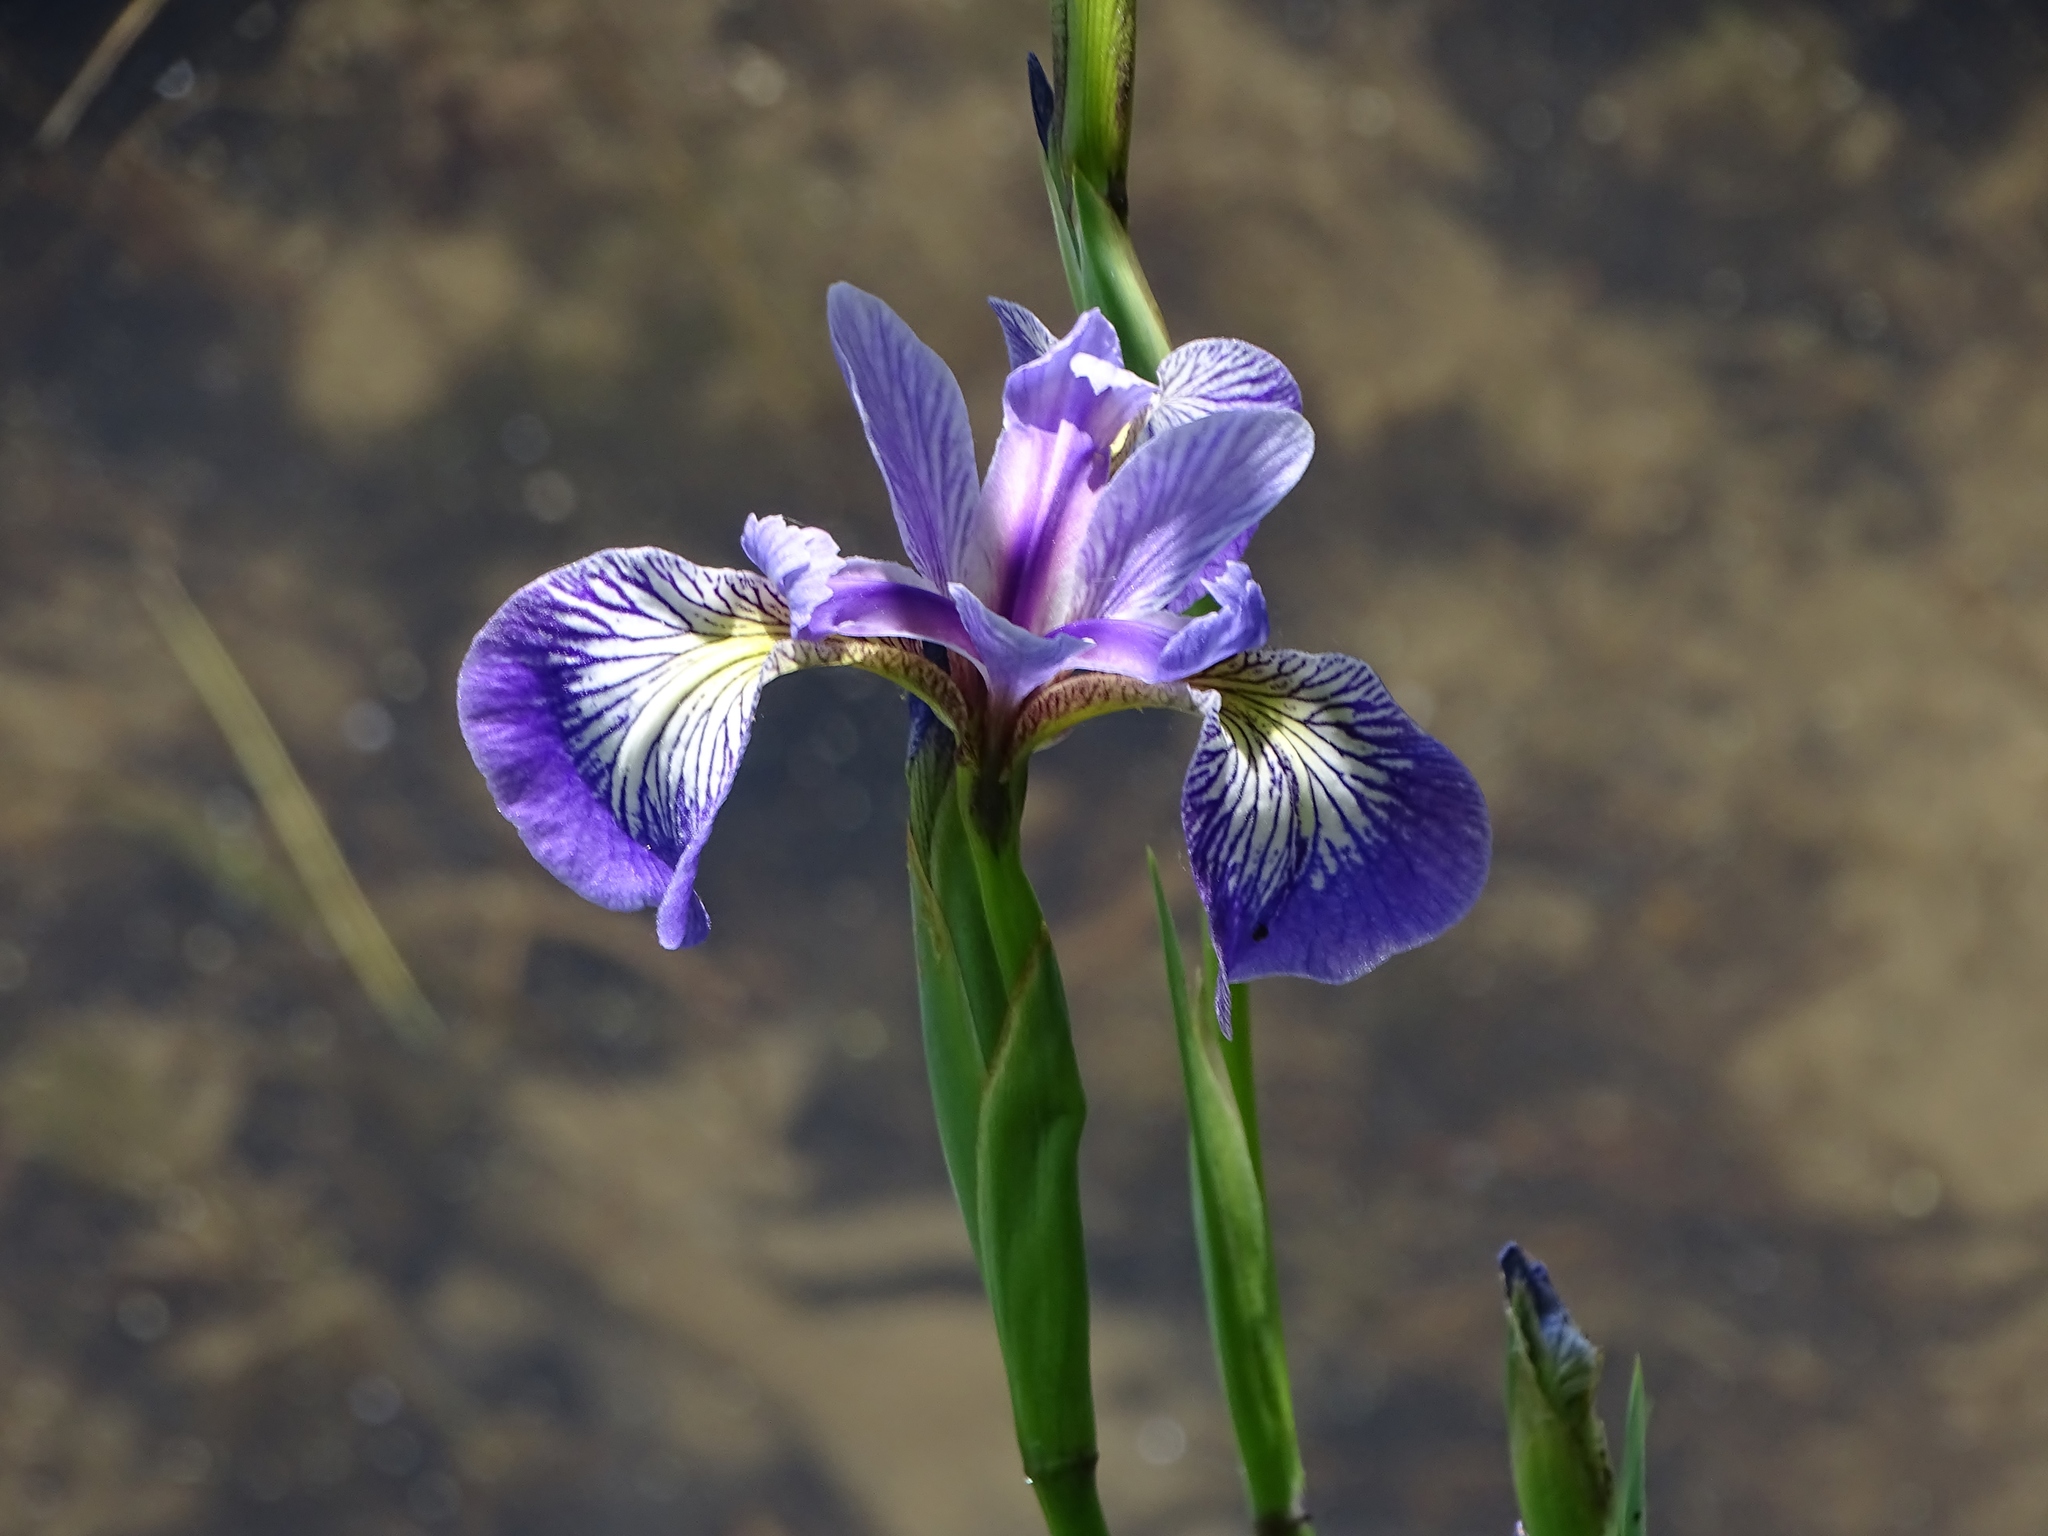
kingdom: Plantae
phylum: Tracheophyta
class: Liliopsida
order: Asparagales
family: Iridaceae
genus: Iris
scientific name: Iris versicolor
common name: Purple iris
